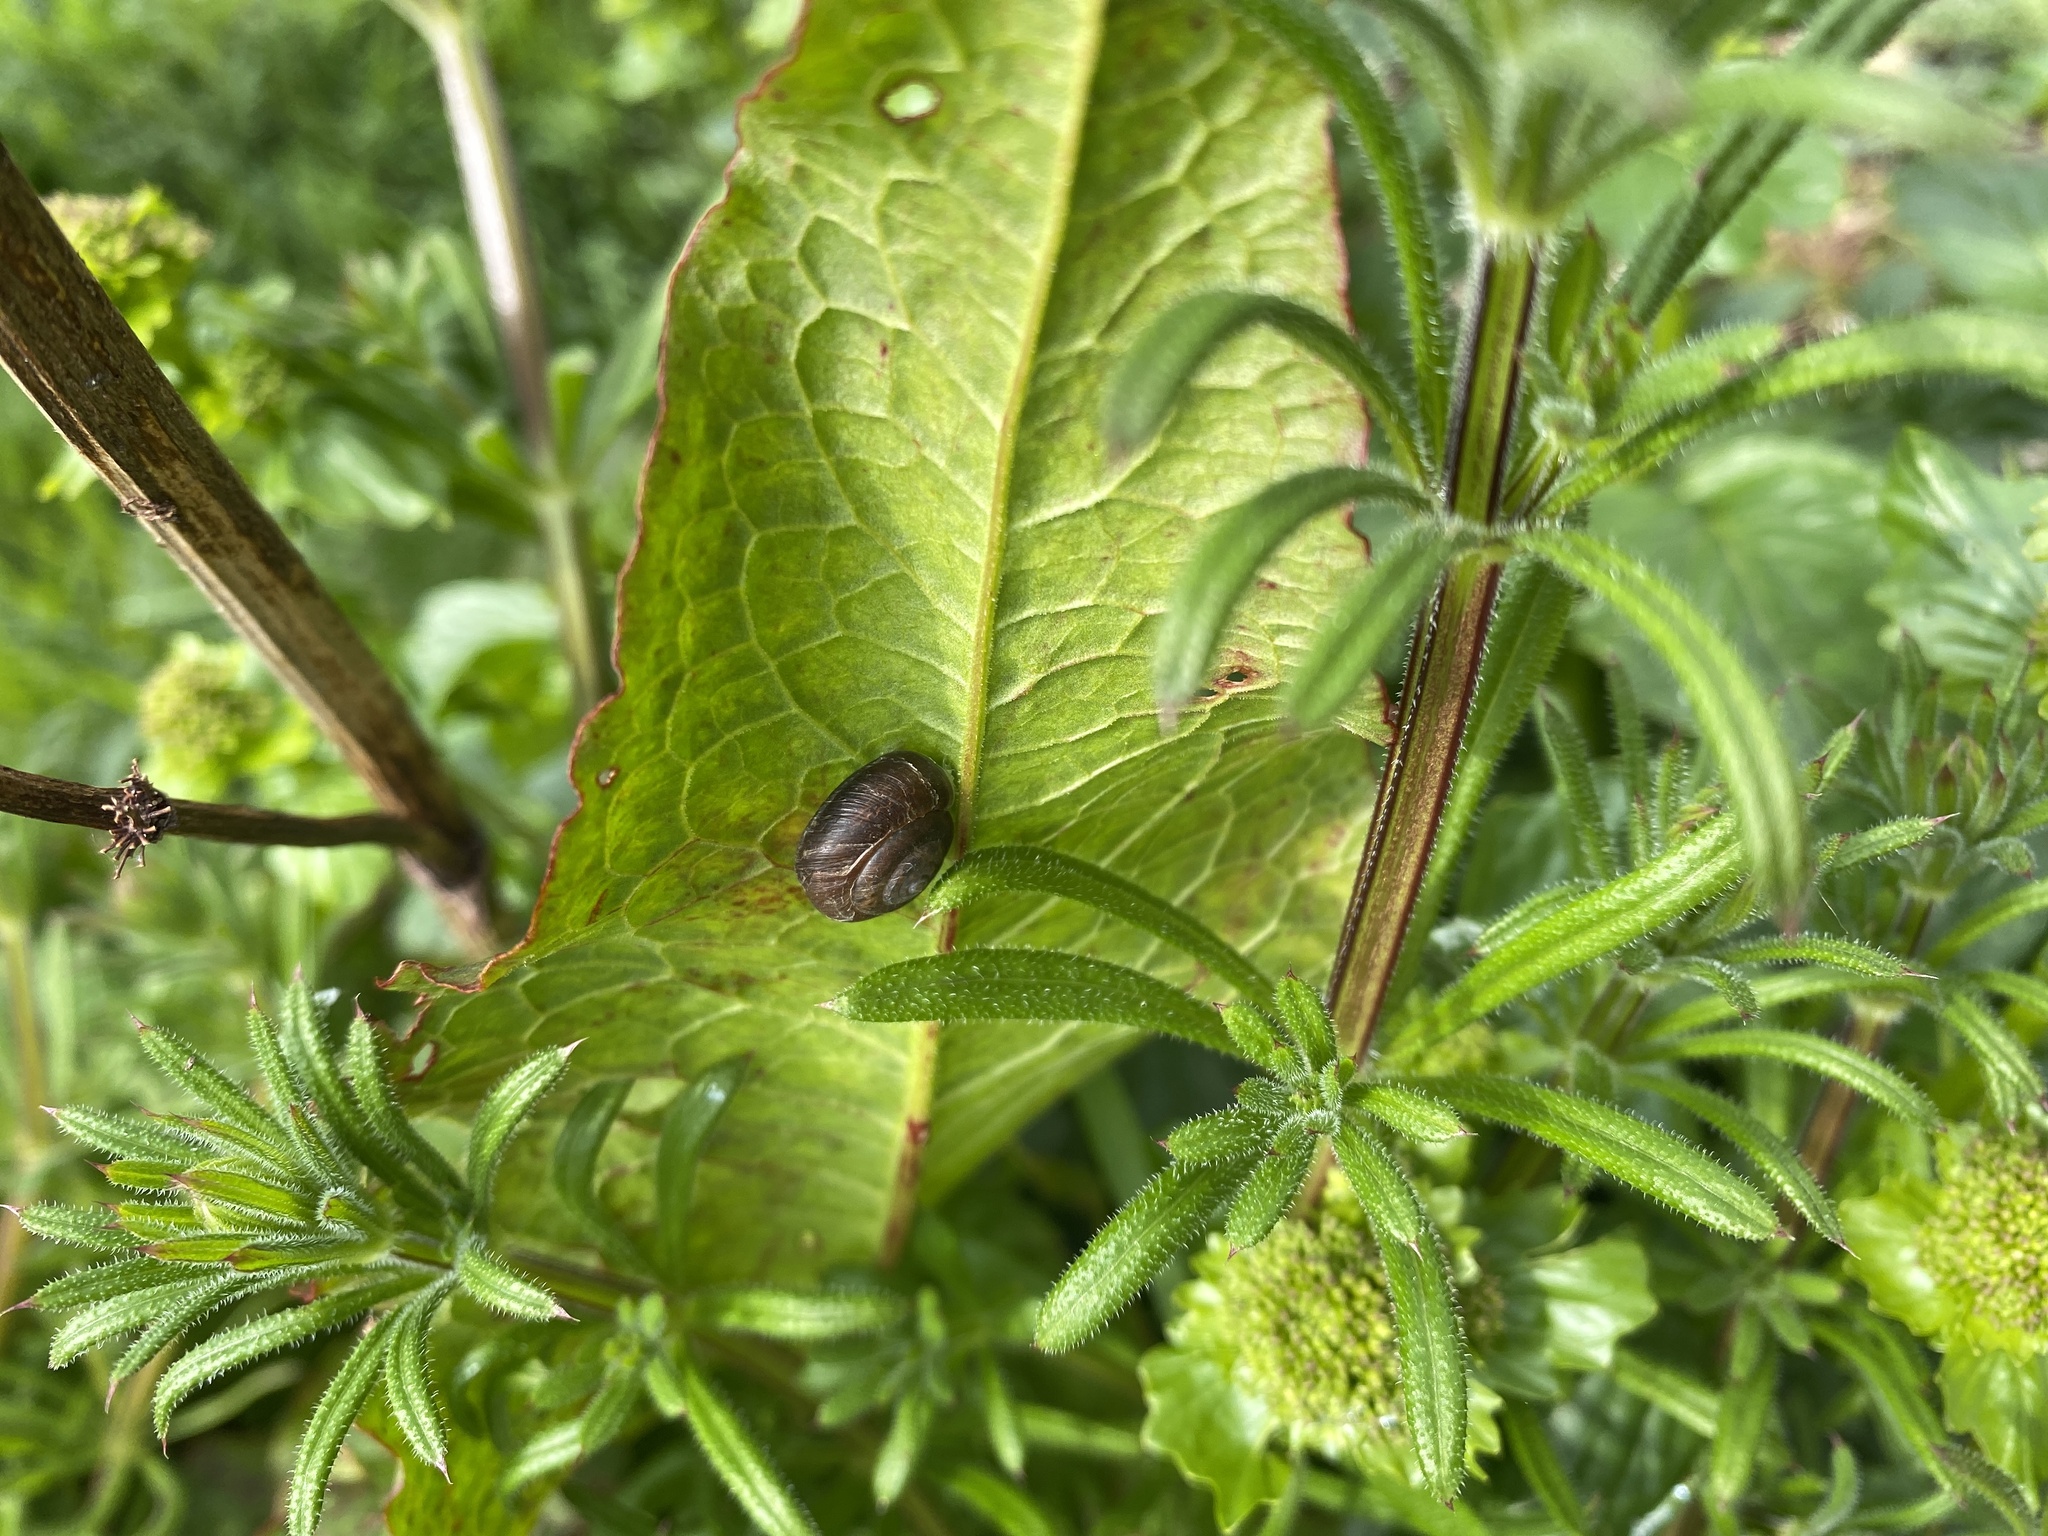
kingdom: Animalia
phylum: Mollusca
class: Gastropoda
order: Stylommatophora
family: Hygromiidae
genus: Trochulus
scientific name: Trochulus striolatus
